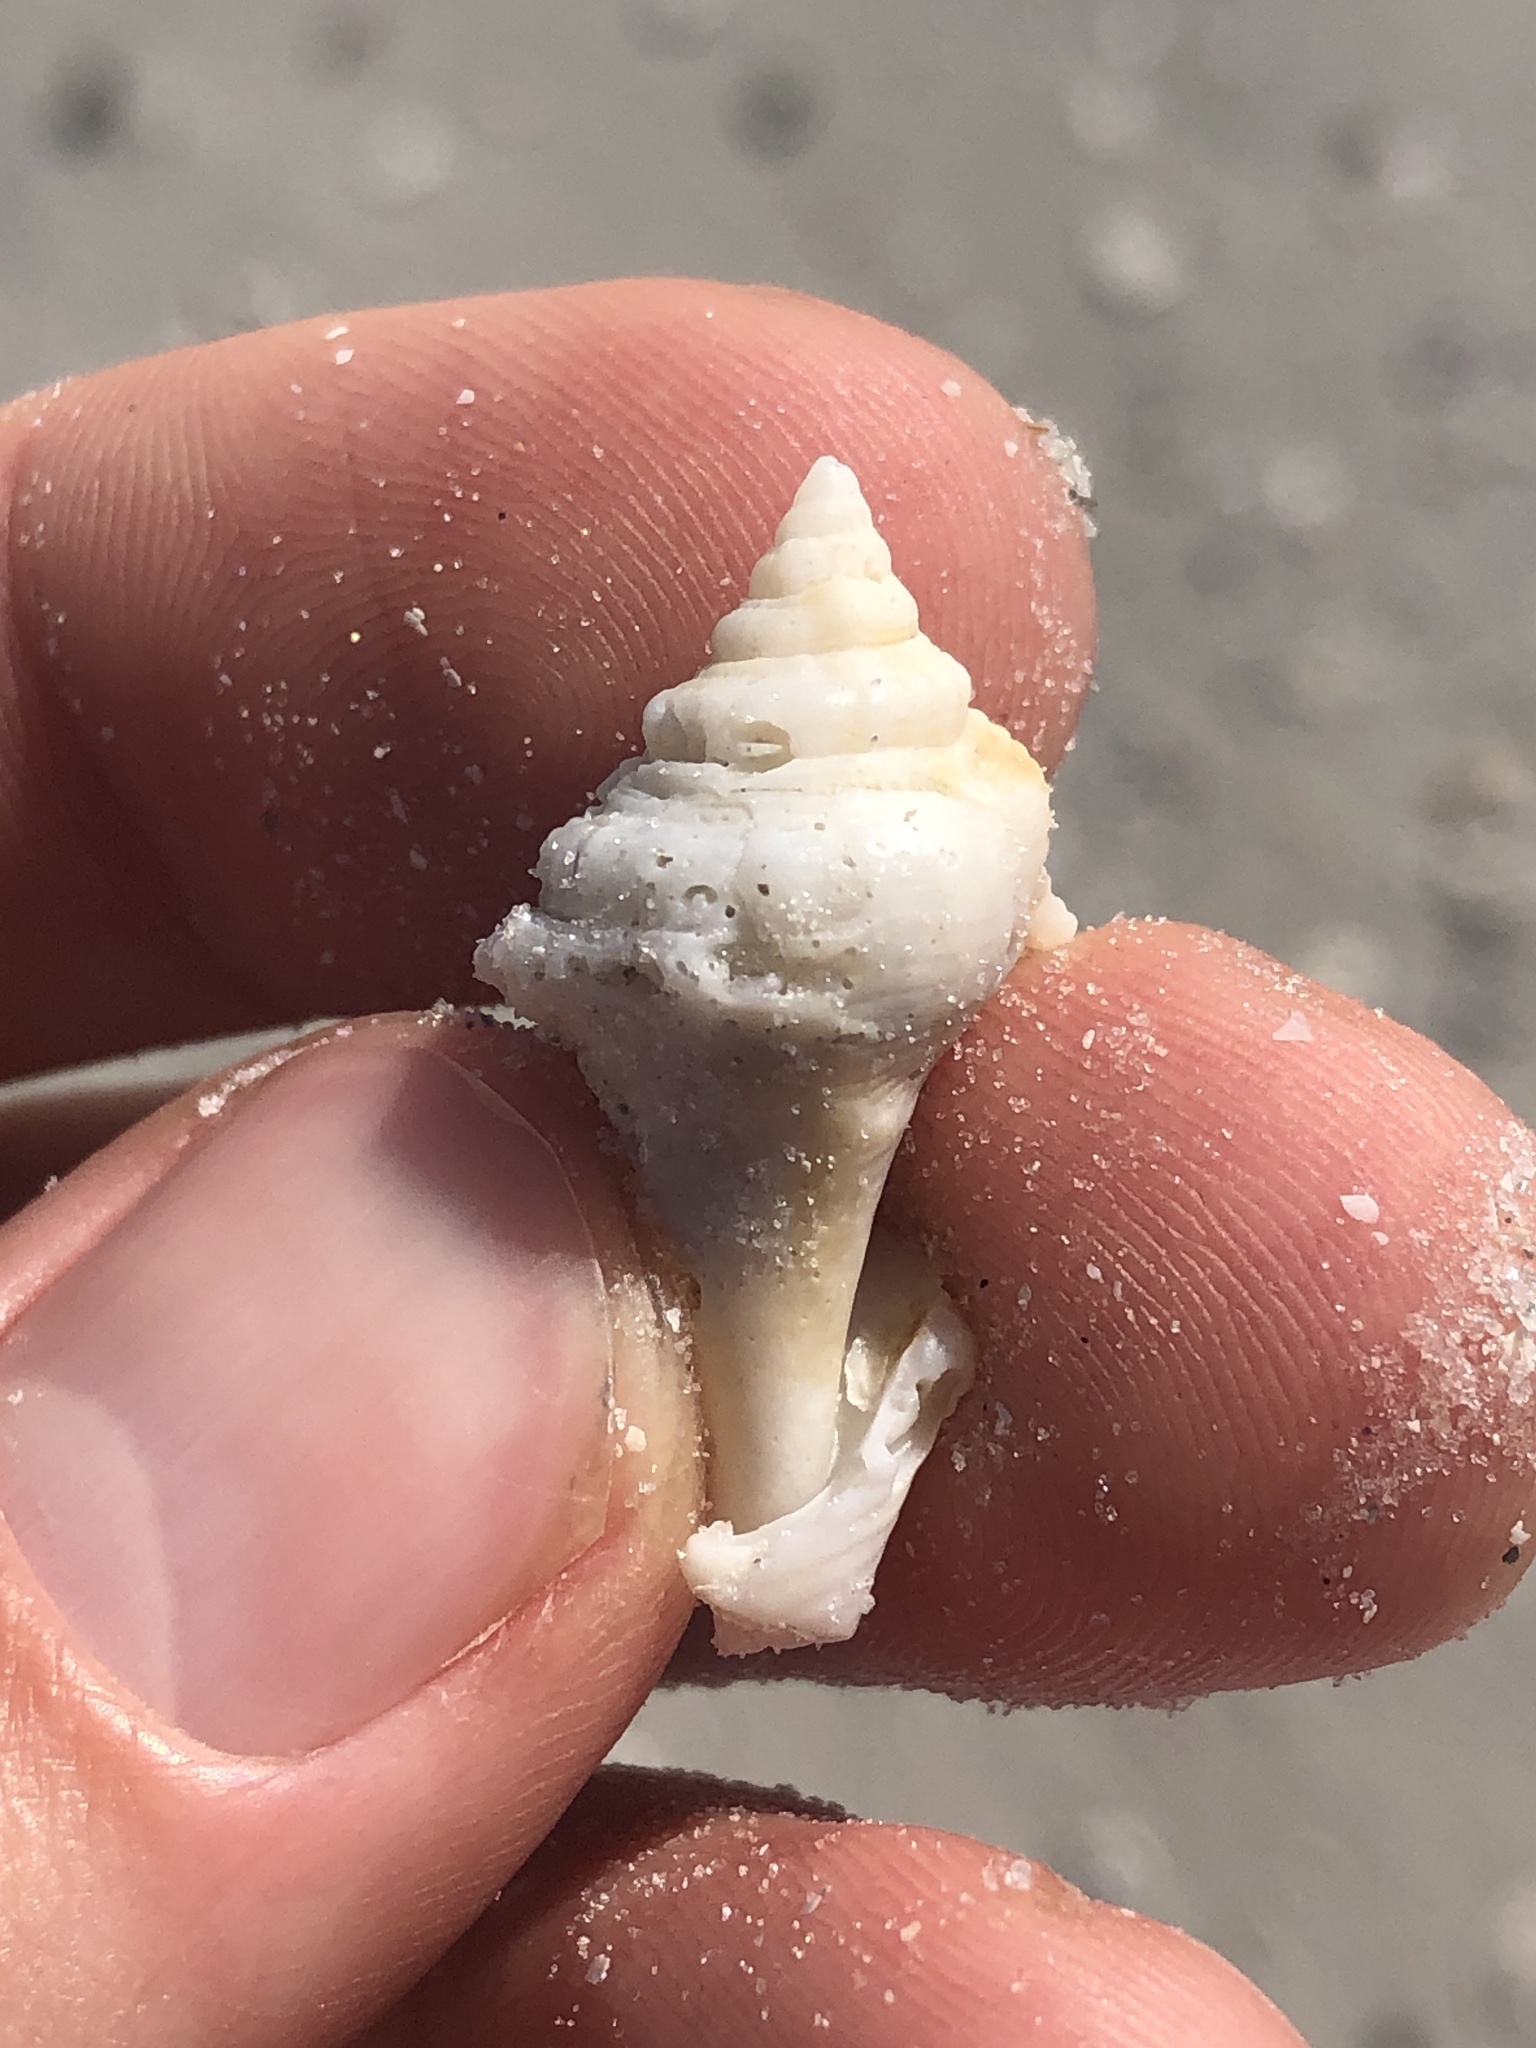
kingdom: Animalia
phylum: Mollusca
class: Gastropoda
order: Littorinimorpha
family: Strombidae
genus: Strombus
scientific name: Strombus alatus
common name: Florida fighting conch
